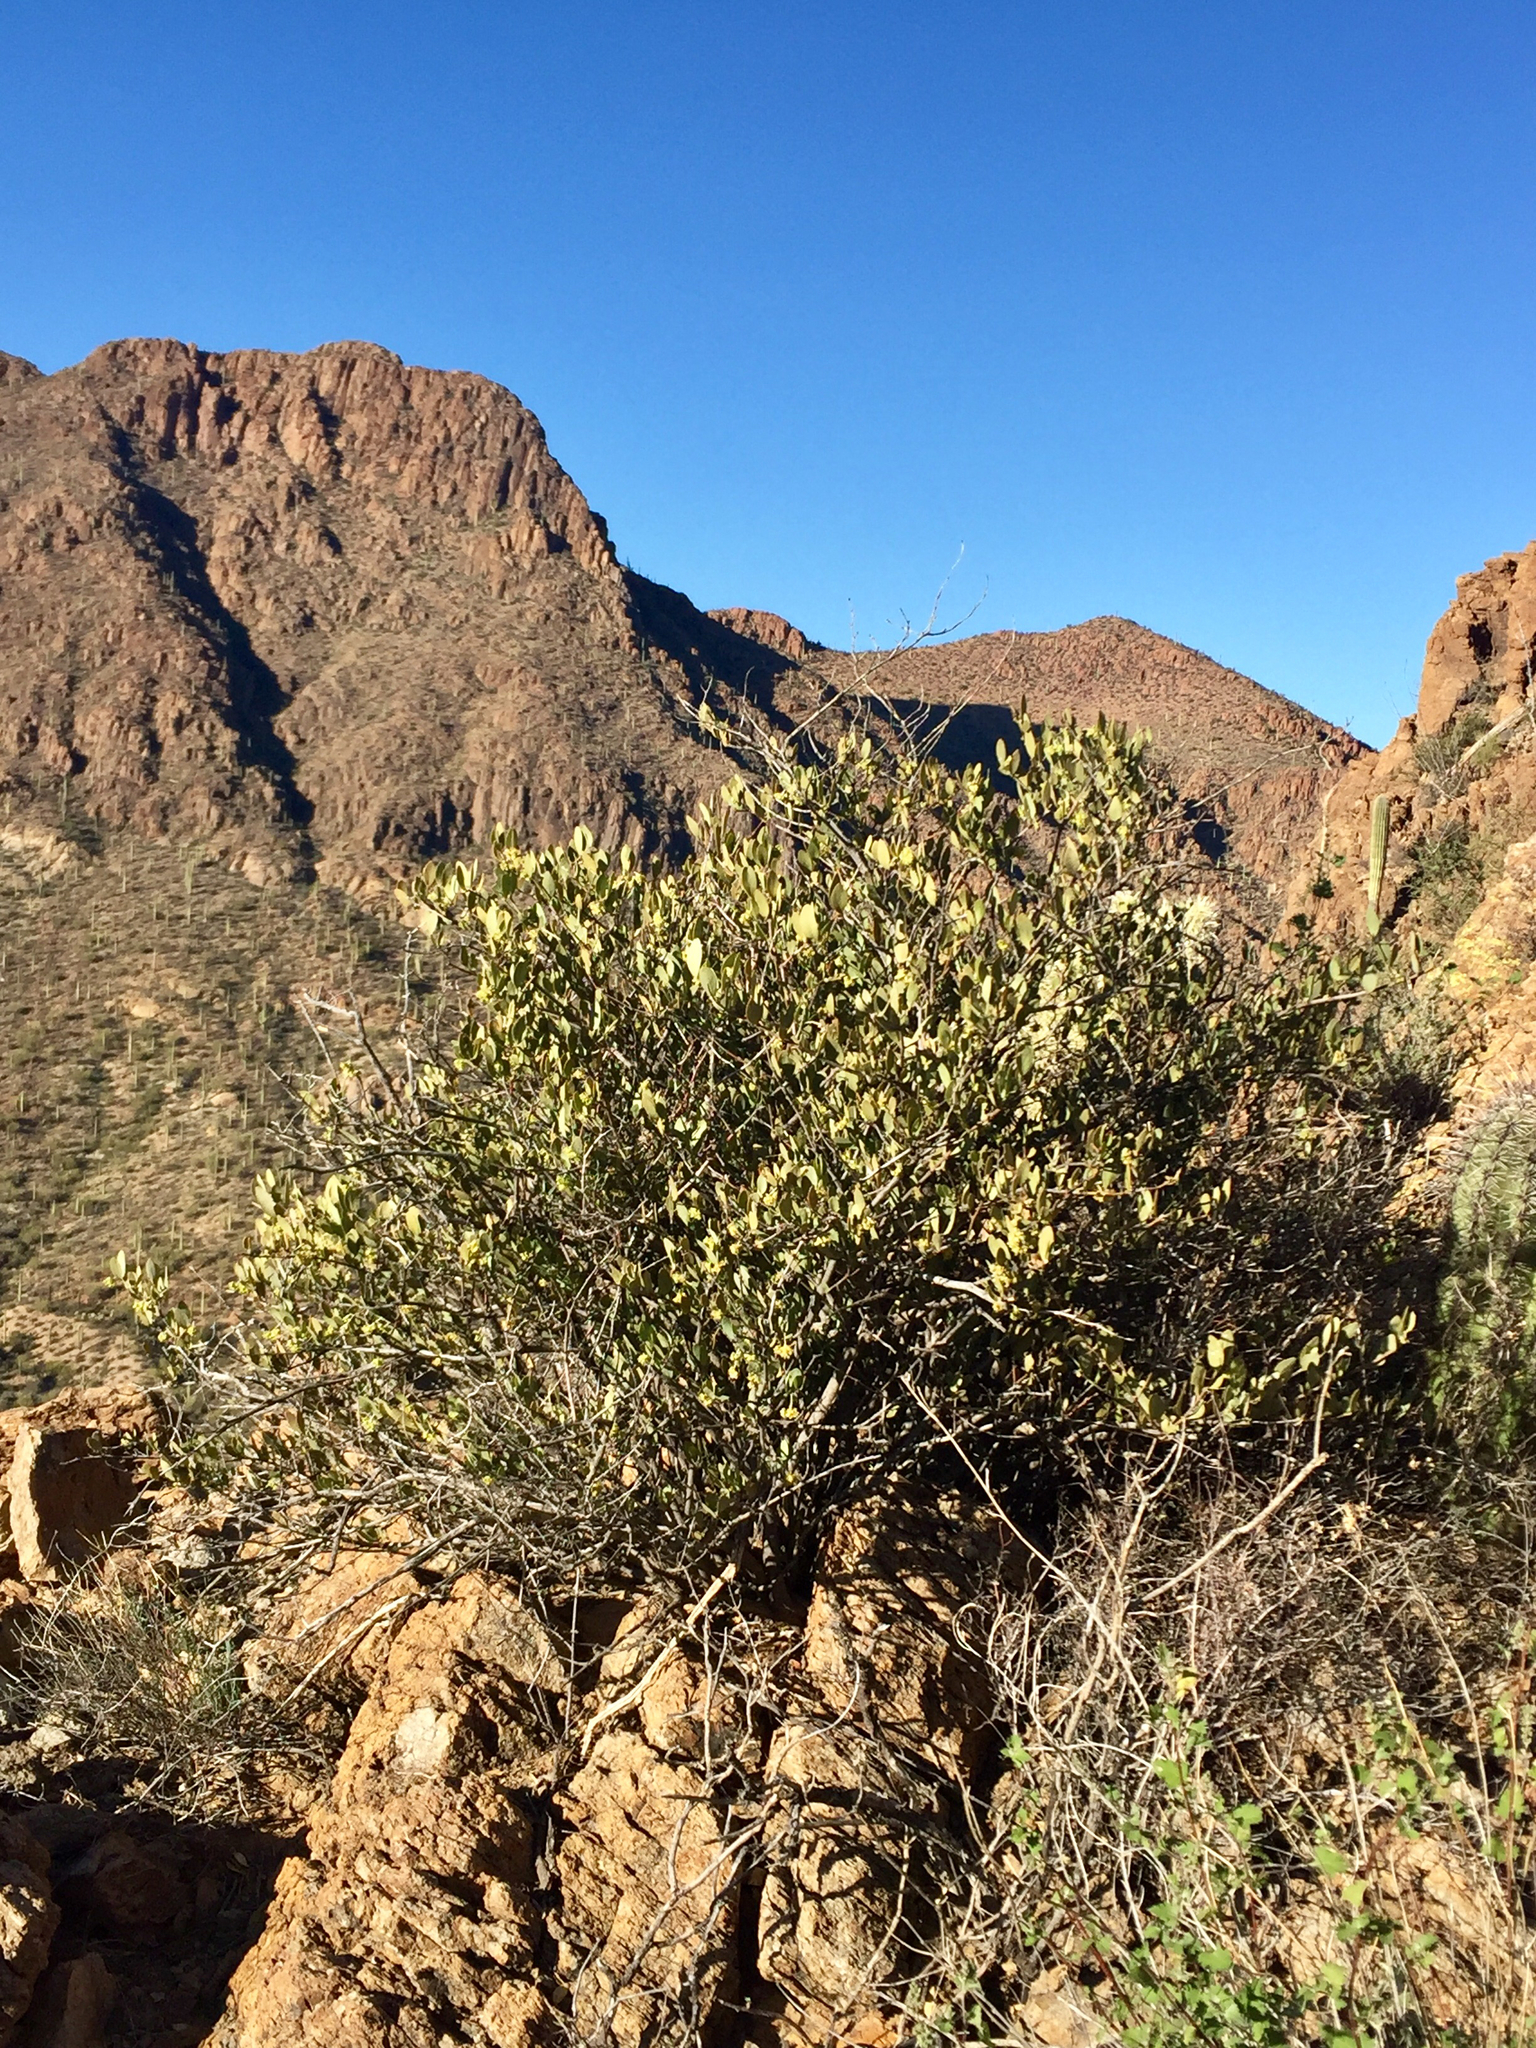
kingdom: Plantae
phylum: Tracheophyta
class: Magnoliopsida
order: Caryophyllales
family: Simmondsiaceae
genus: Simmondsia
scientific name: Simmondsia chinensis
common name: Jojoba
